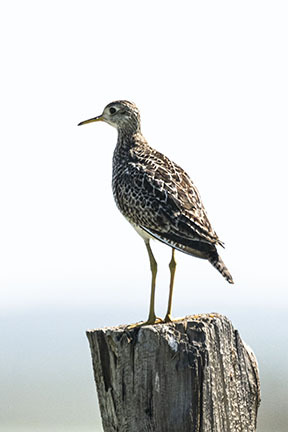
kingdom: Animalia
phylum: Chordata
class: Aves
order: Charadriiformes
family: Scolopacidae
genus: Bartramia
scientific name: Bartramia longicauda
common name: Upland sandpiper
